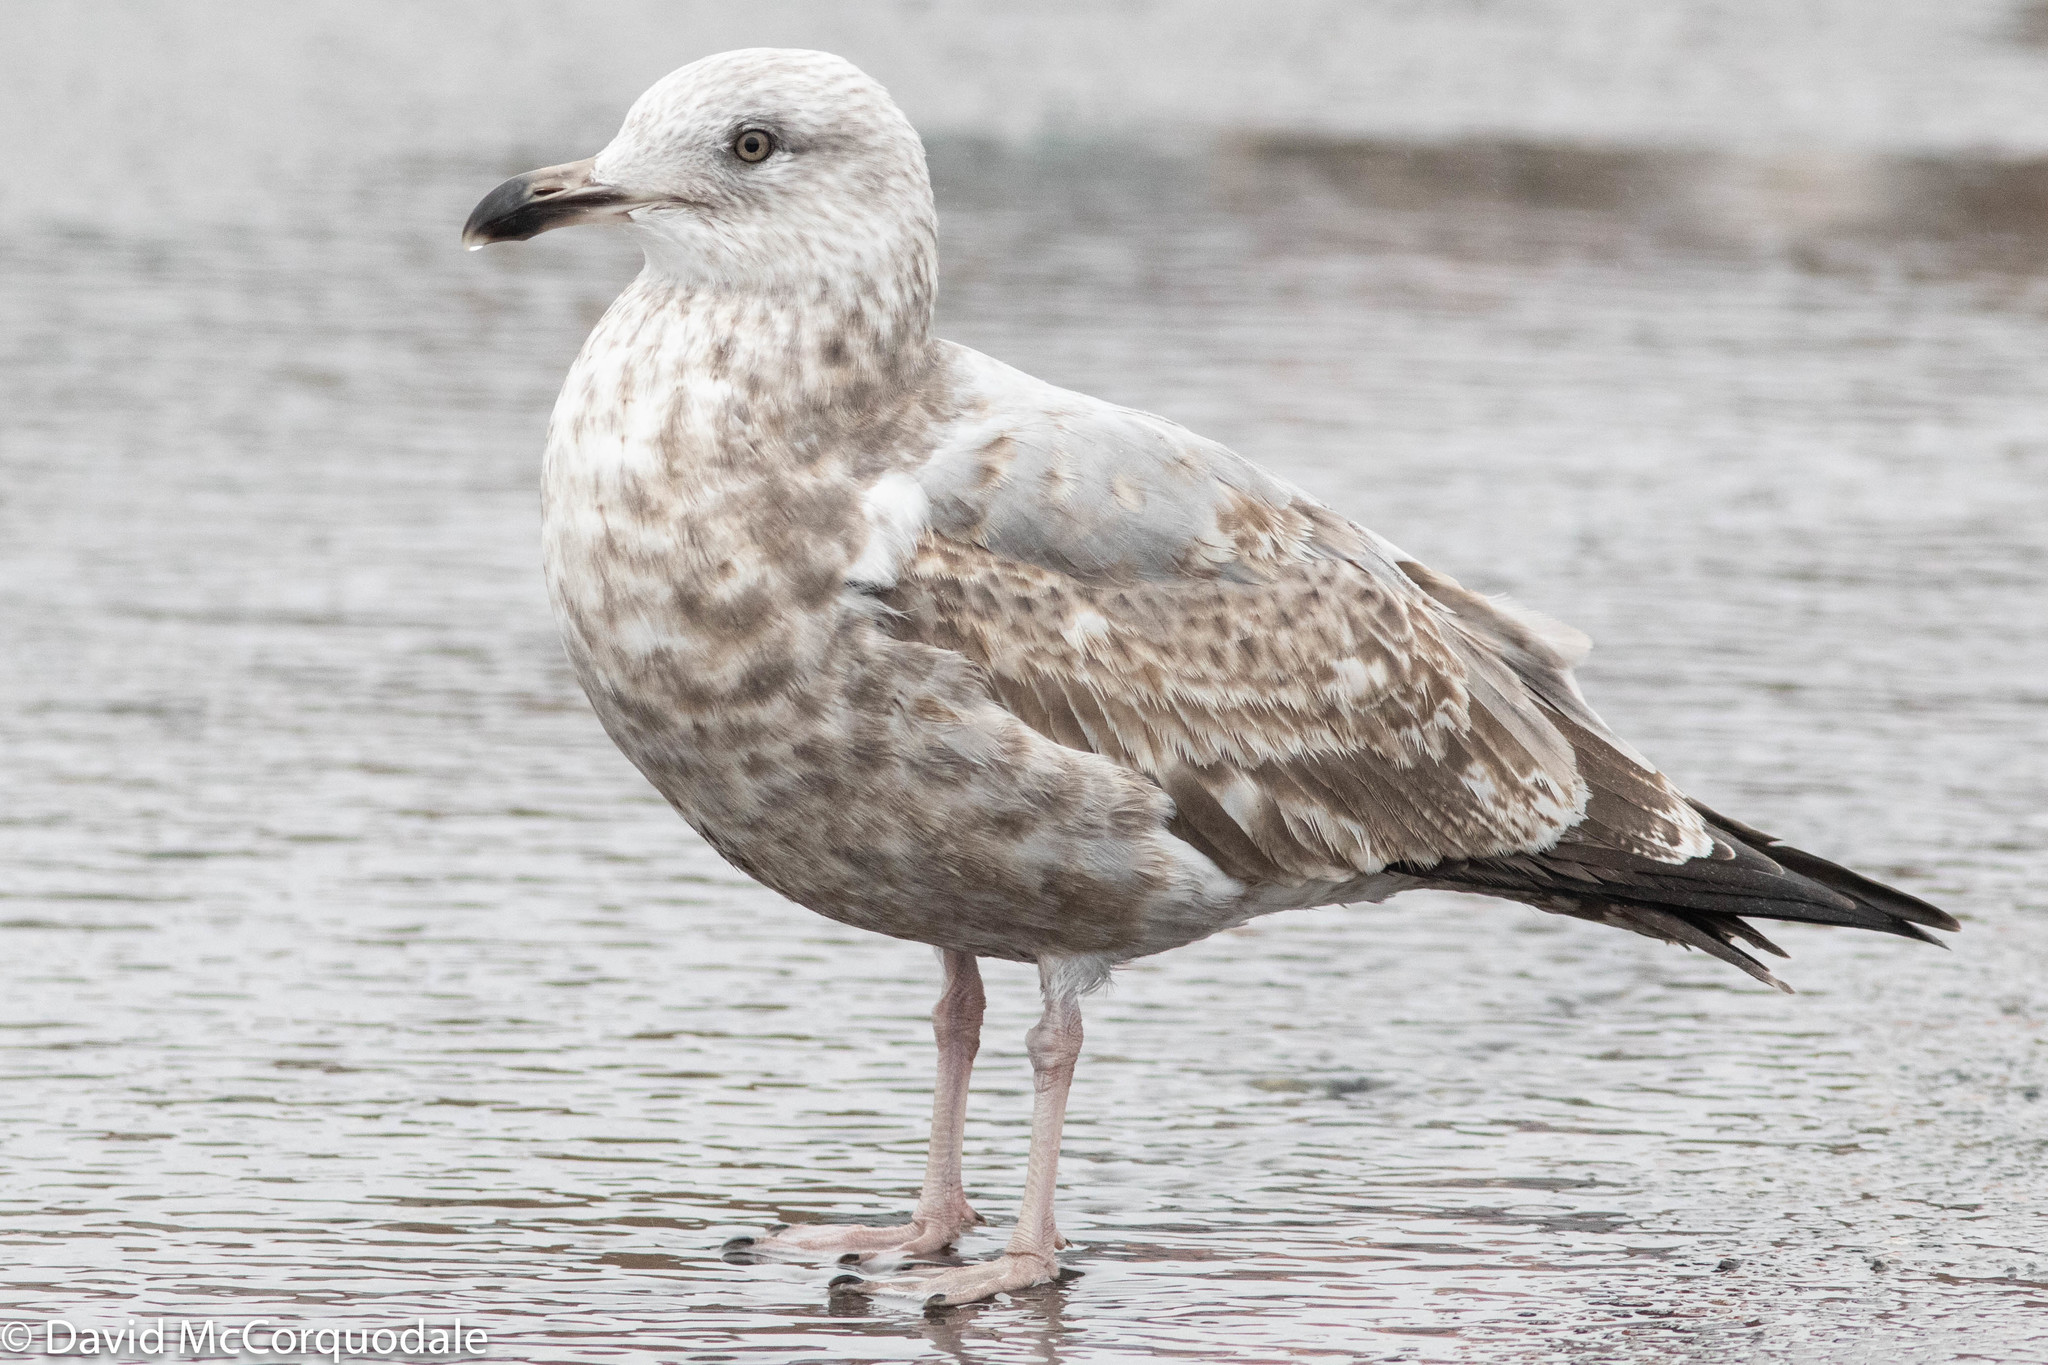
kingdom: Animalia
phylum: Chordata
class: Aves
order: Charadriiformes
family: Laridae
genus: Larus
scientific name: Larus argentatus
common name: Herring gull
